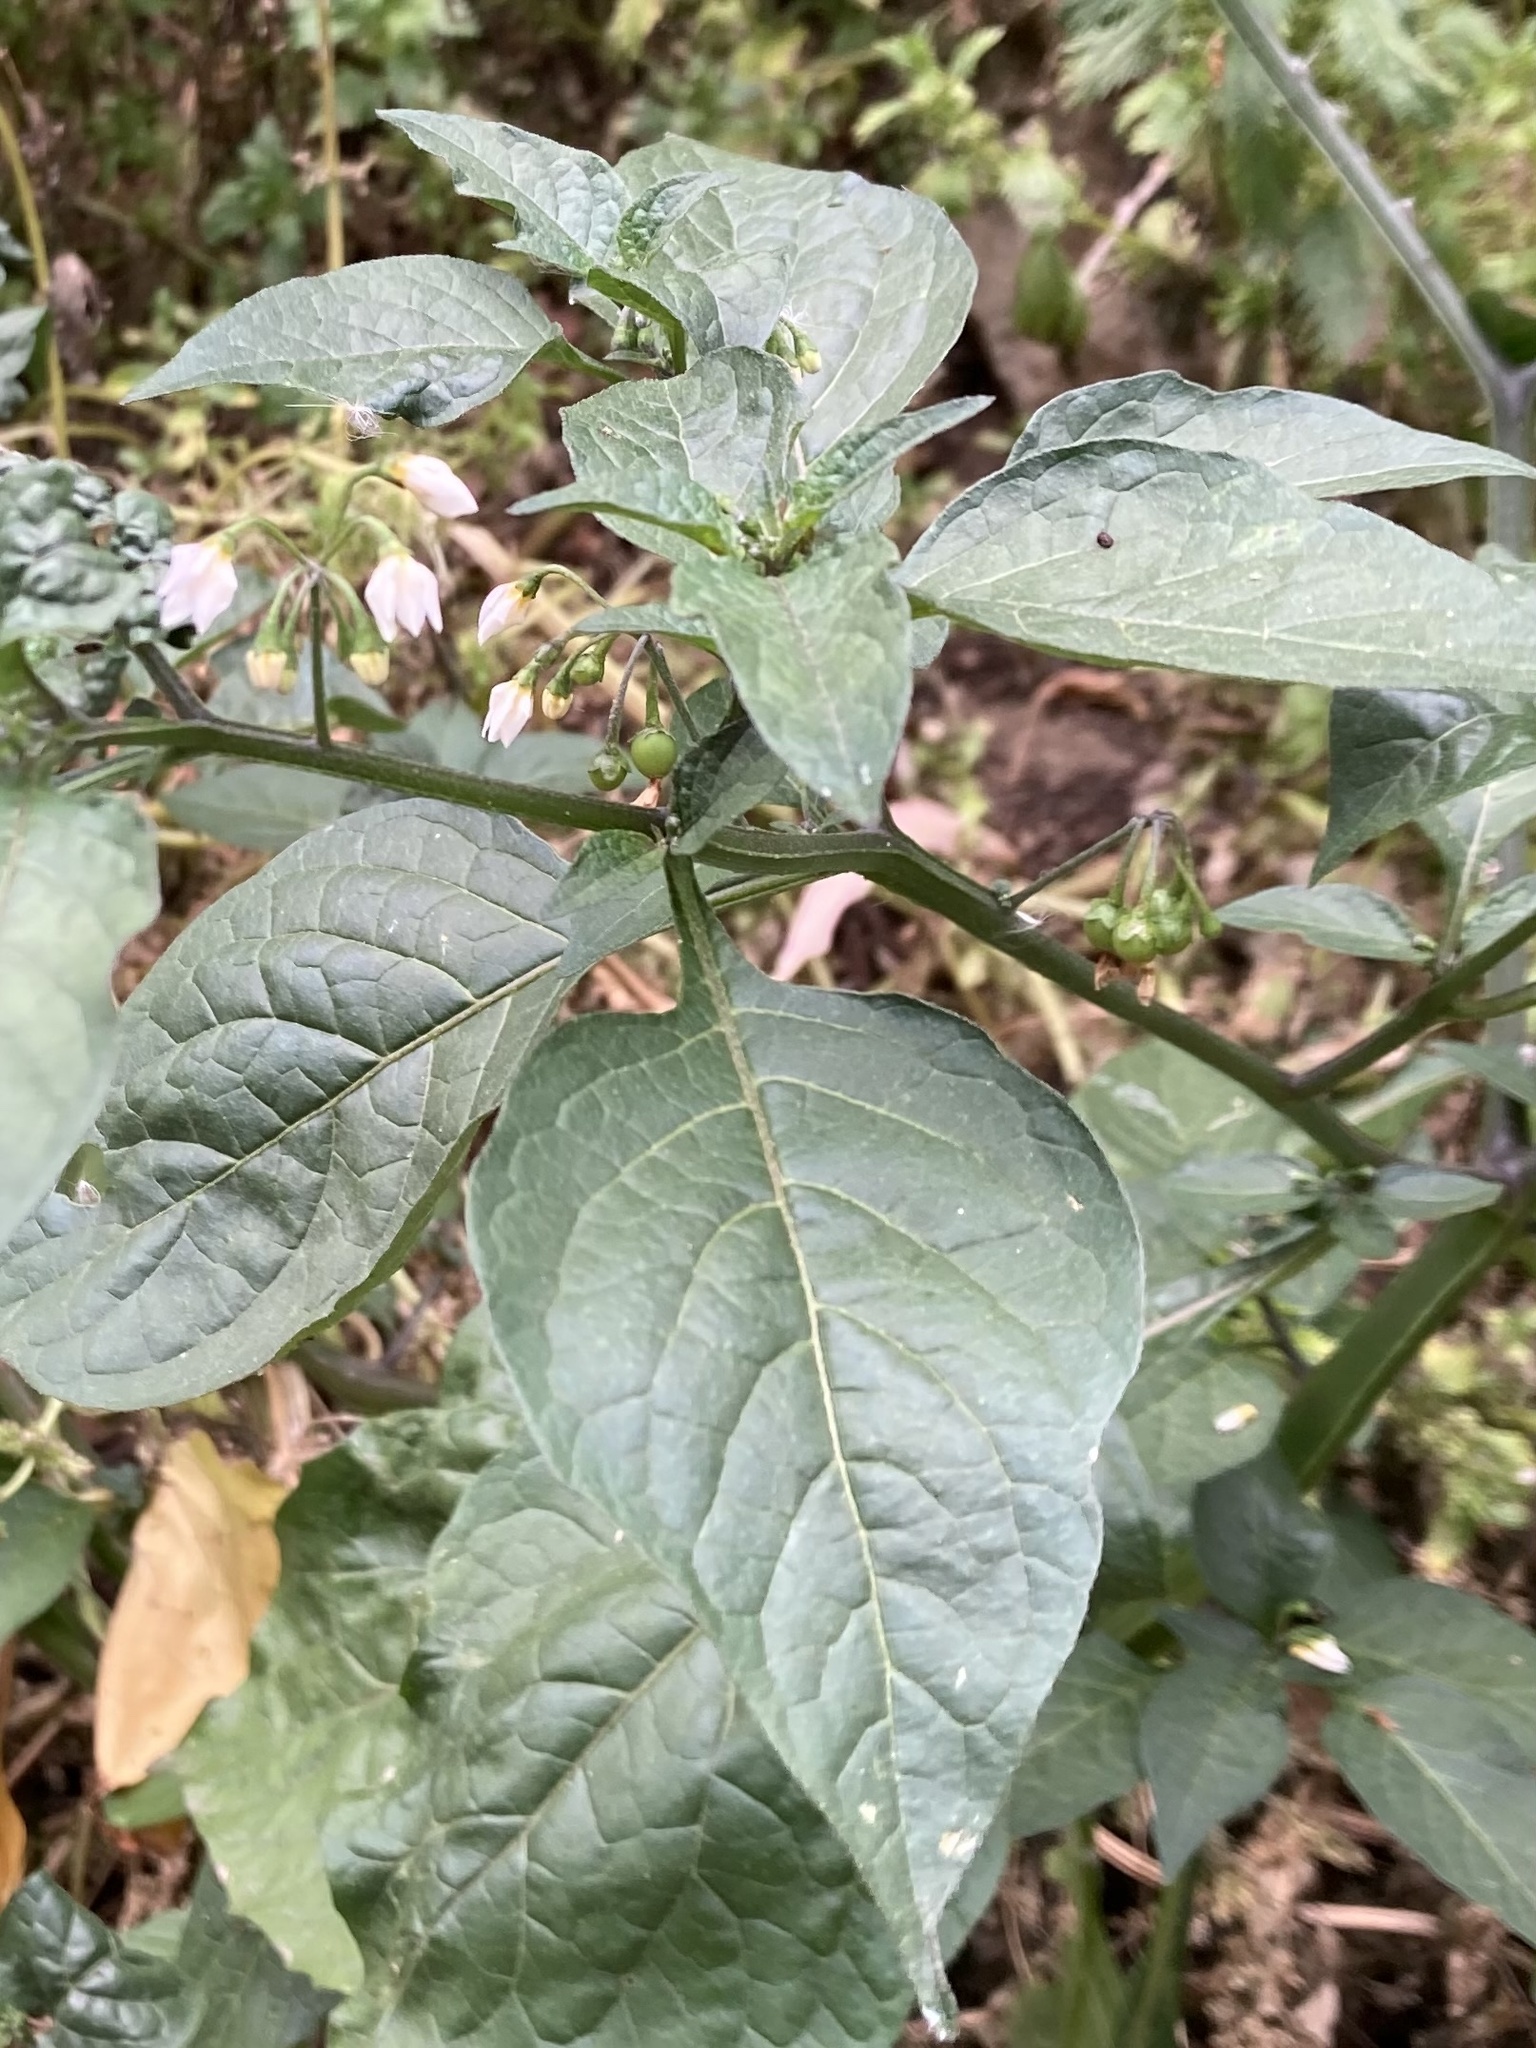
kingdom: Plantae
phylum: Tracheophyta
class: Magnoliopsida
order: Solanales
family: Solanaceae
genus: Solanum
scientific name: Solanum nigrum
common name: Black nightshade
